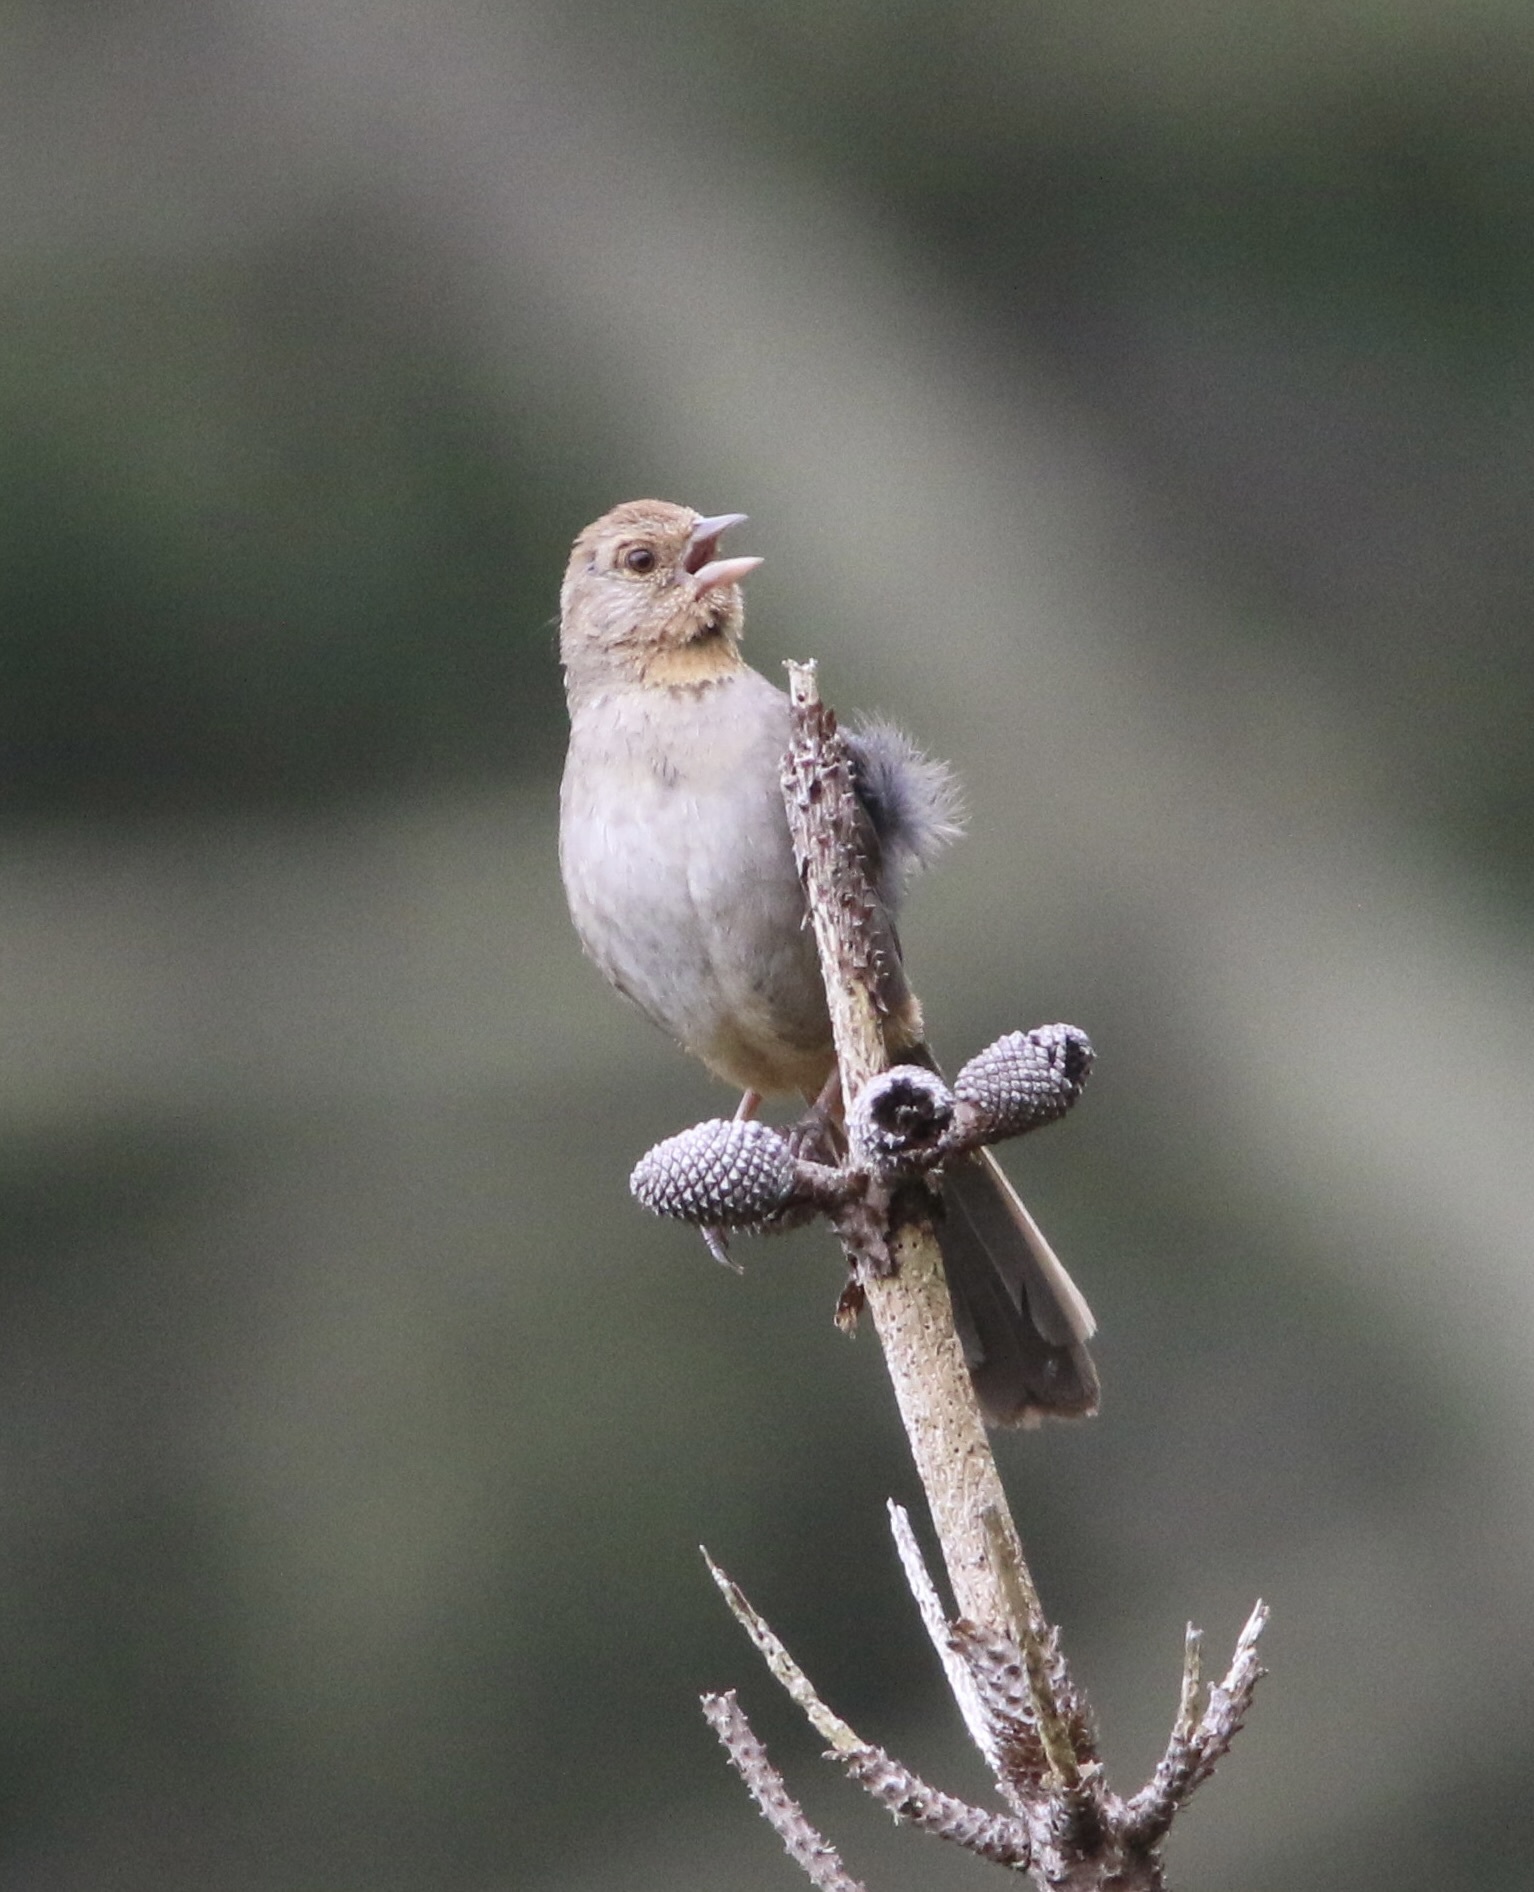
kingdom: Animalia
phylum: Chordata
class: Aves
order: Passeriformes
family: Passerellidae
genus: Melozone
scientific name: Melozone crissalis
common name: California towhee
